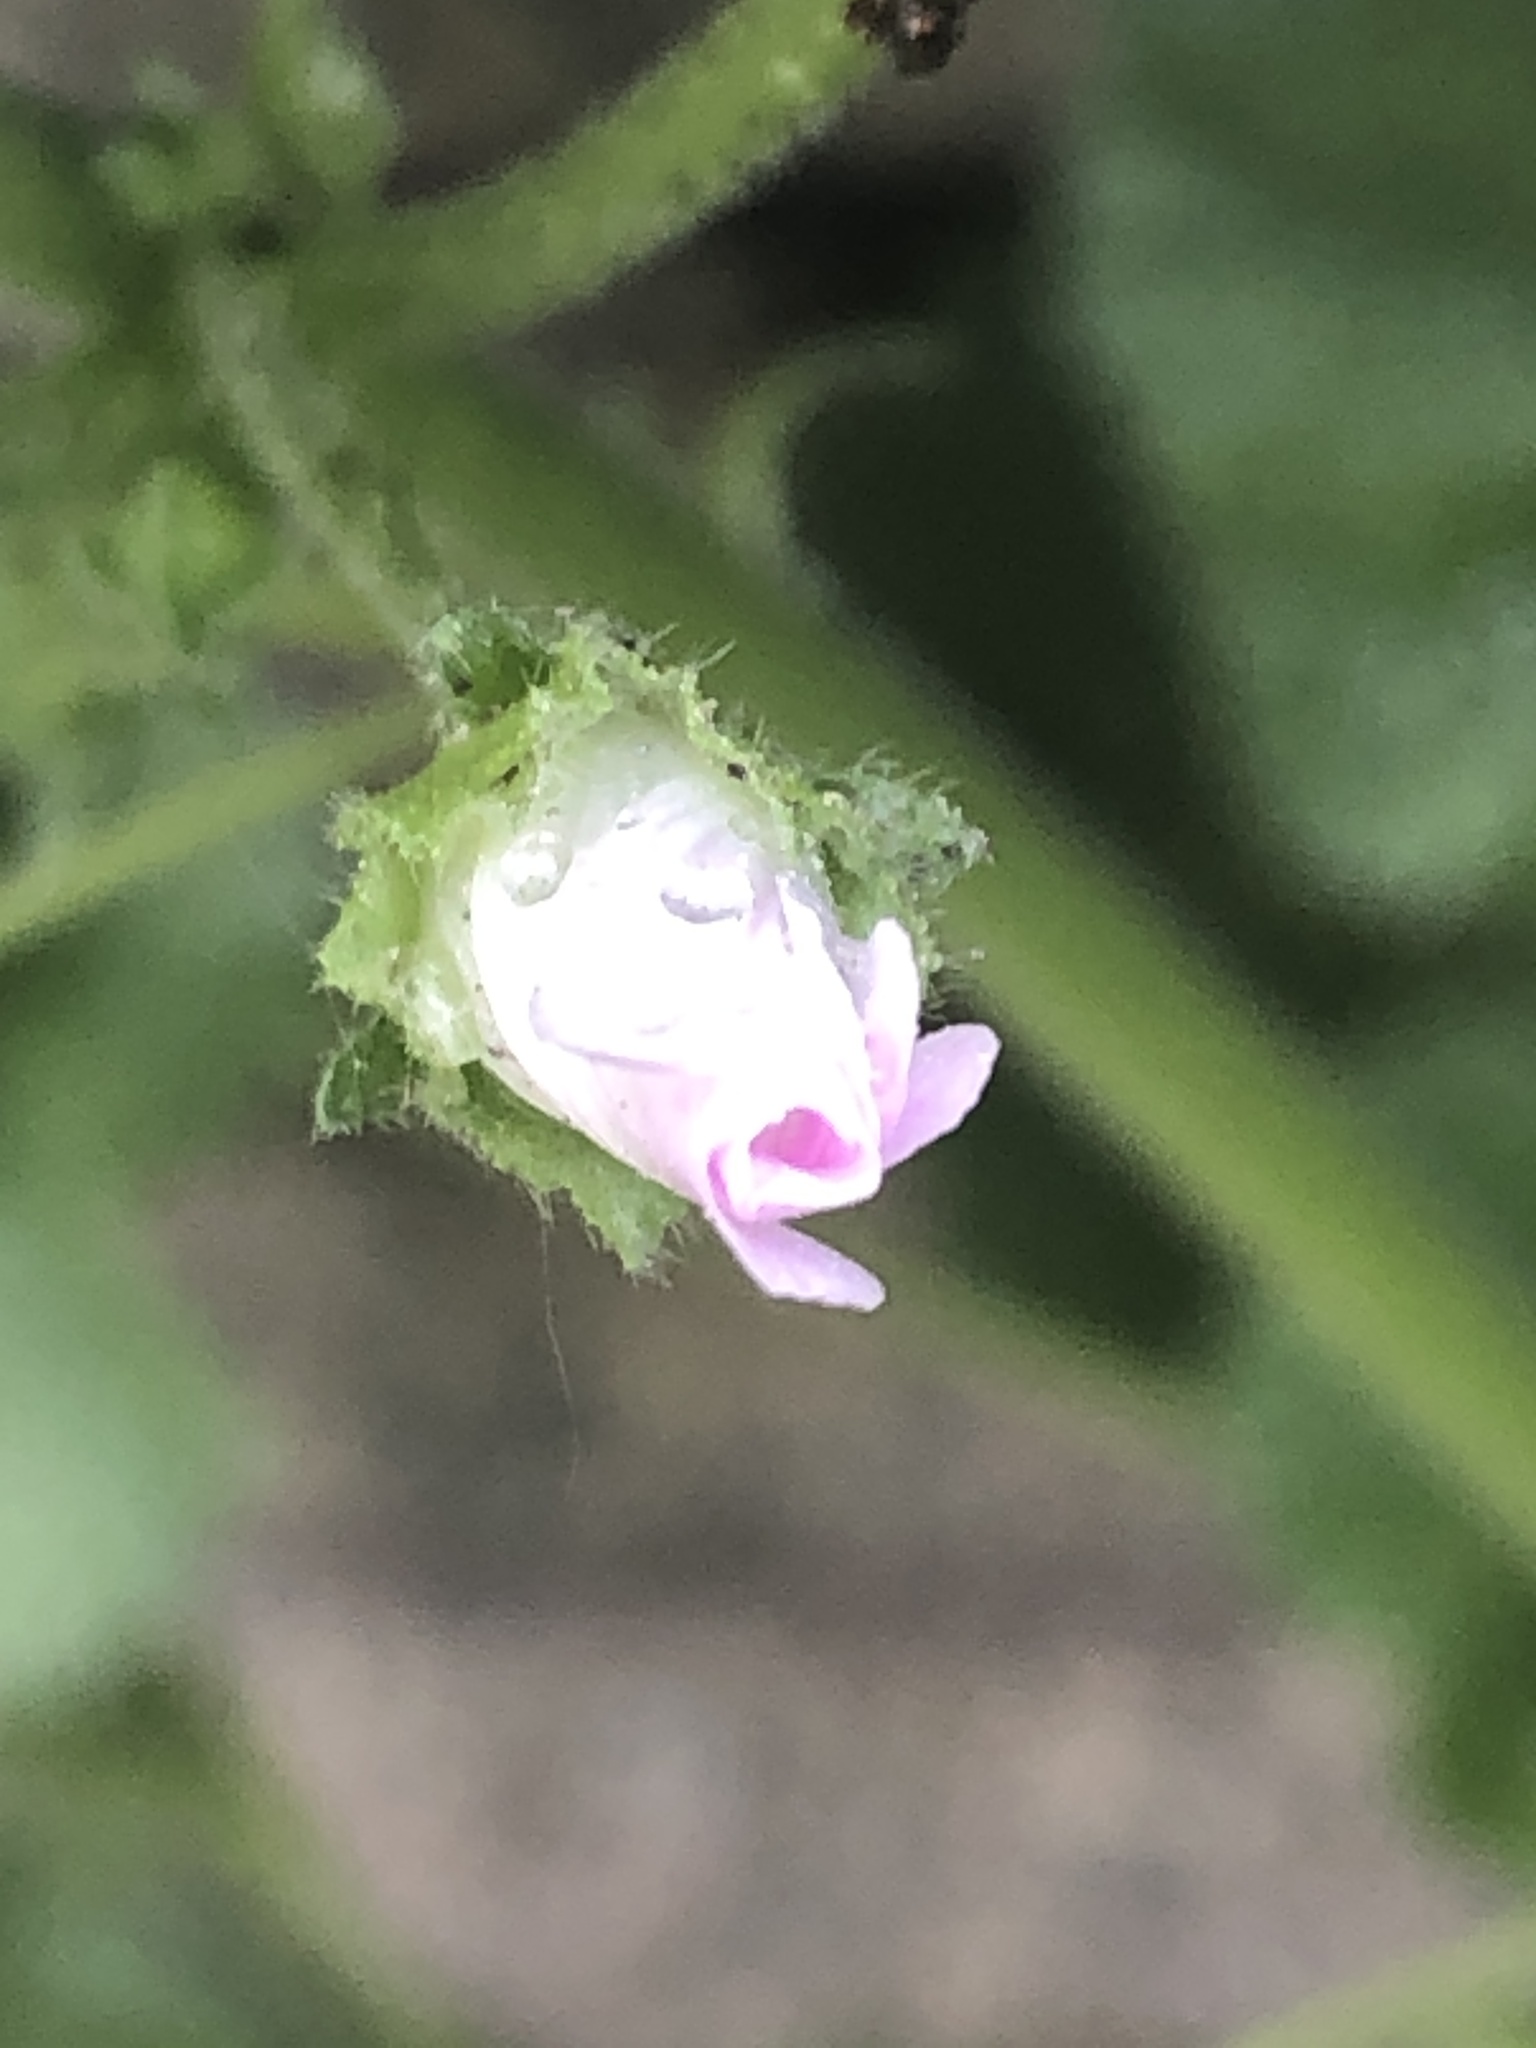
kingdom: Plantae
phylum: Tracheophyta
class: Magnoliopsida
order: Malvales
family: Malvaceae
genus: Malva
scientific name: Malva neglecta
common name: Common mallow
